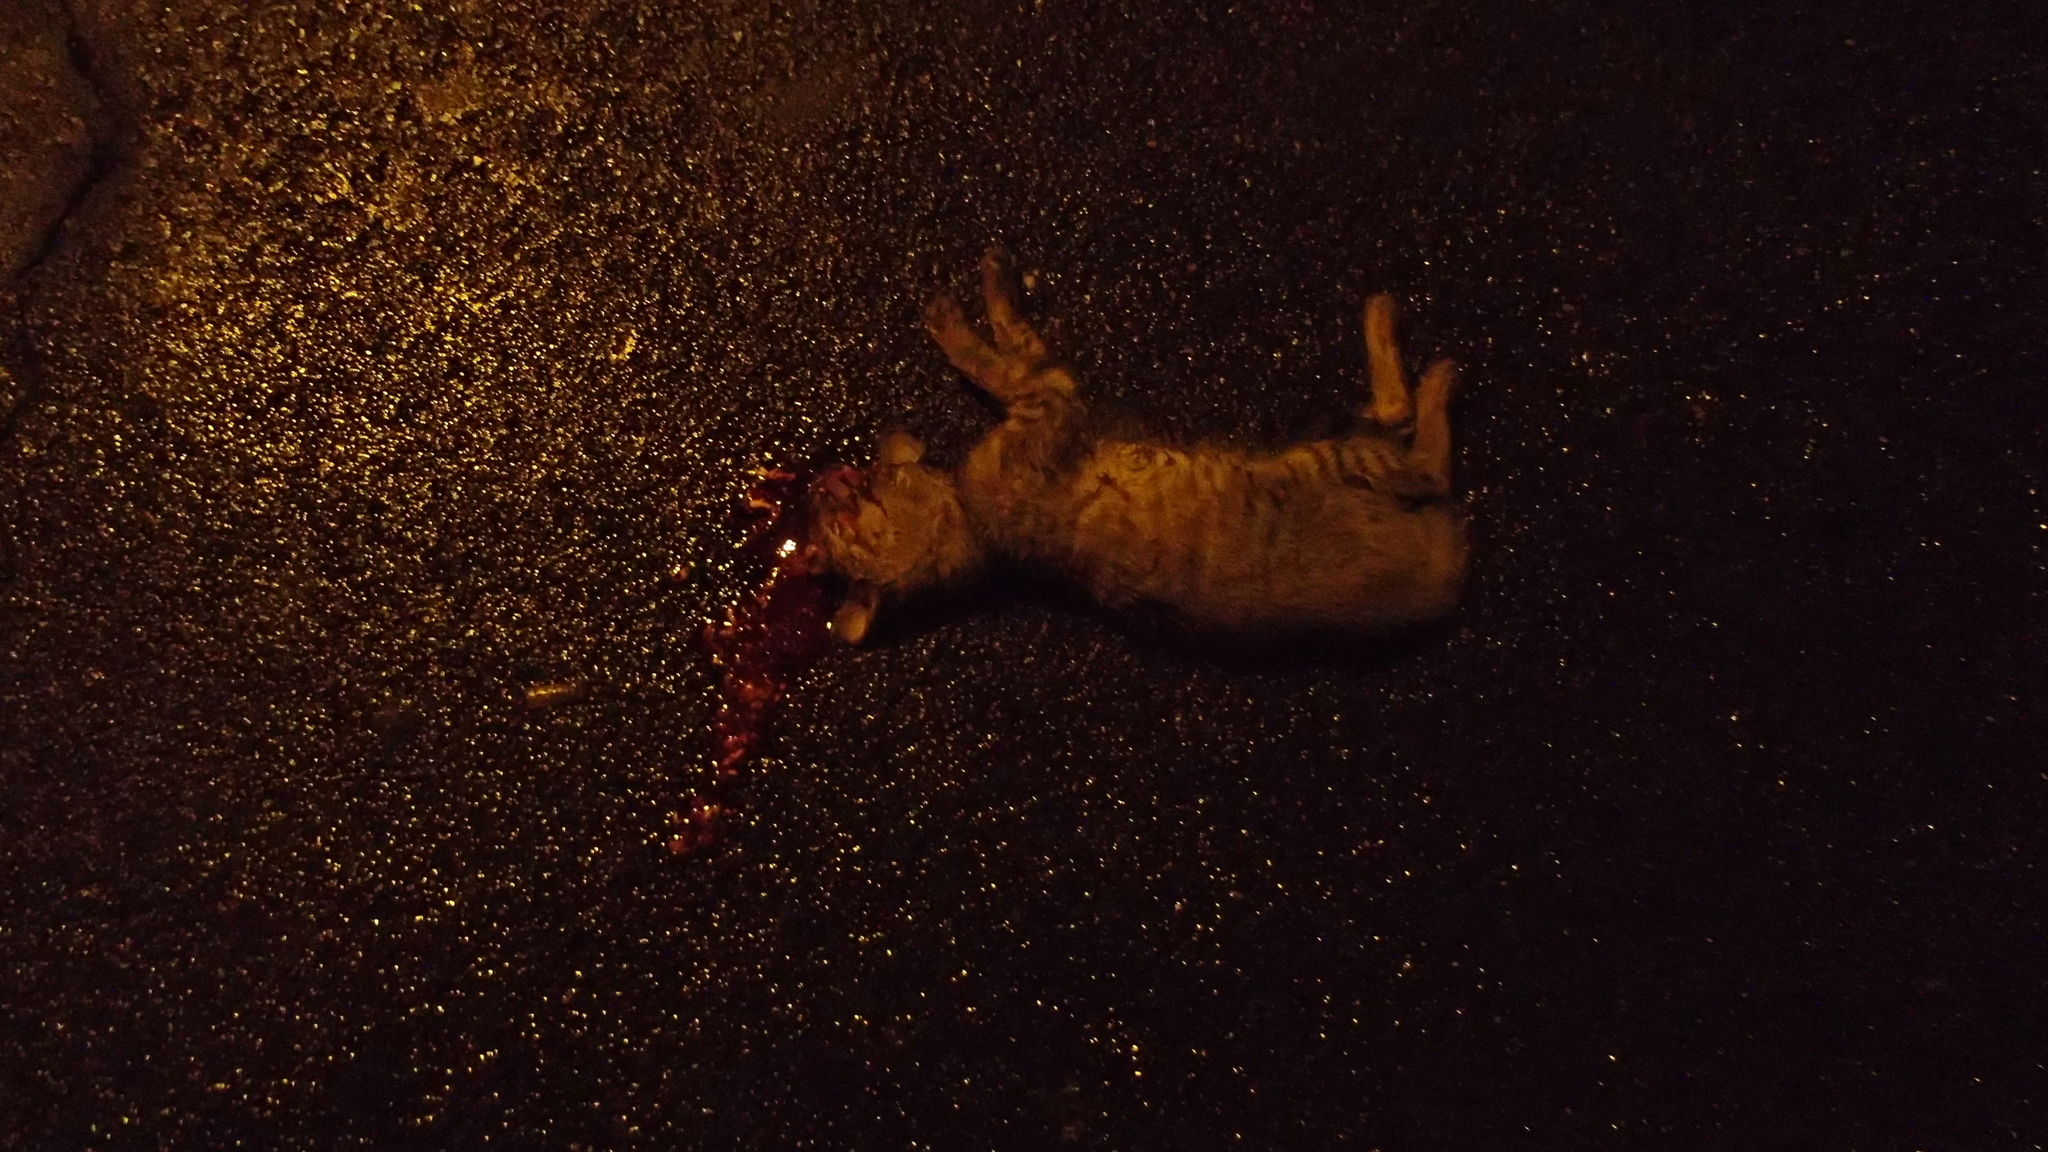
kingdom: Animalia
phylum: Chordata
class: Mammalia
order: Carnivora
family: Felidae
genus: Felis
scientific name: Felis catus
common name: Domestic cat
